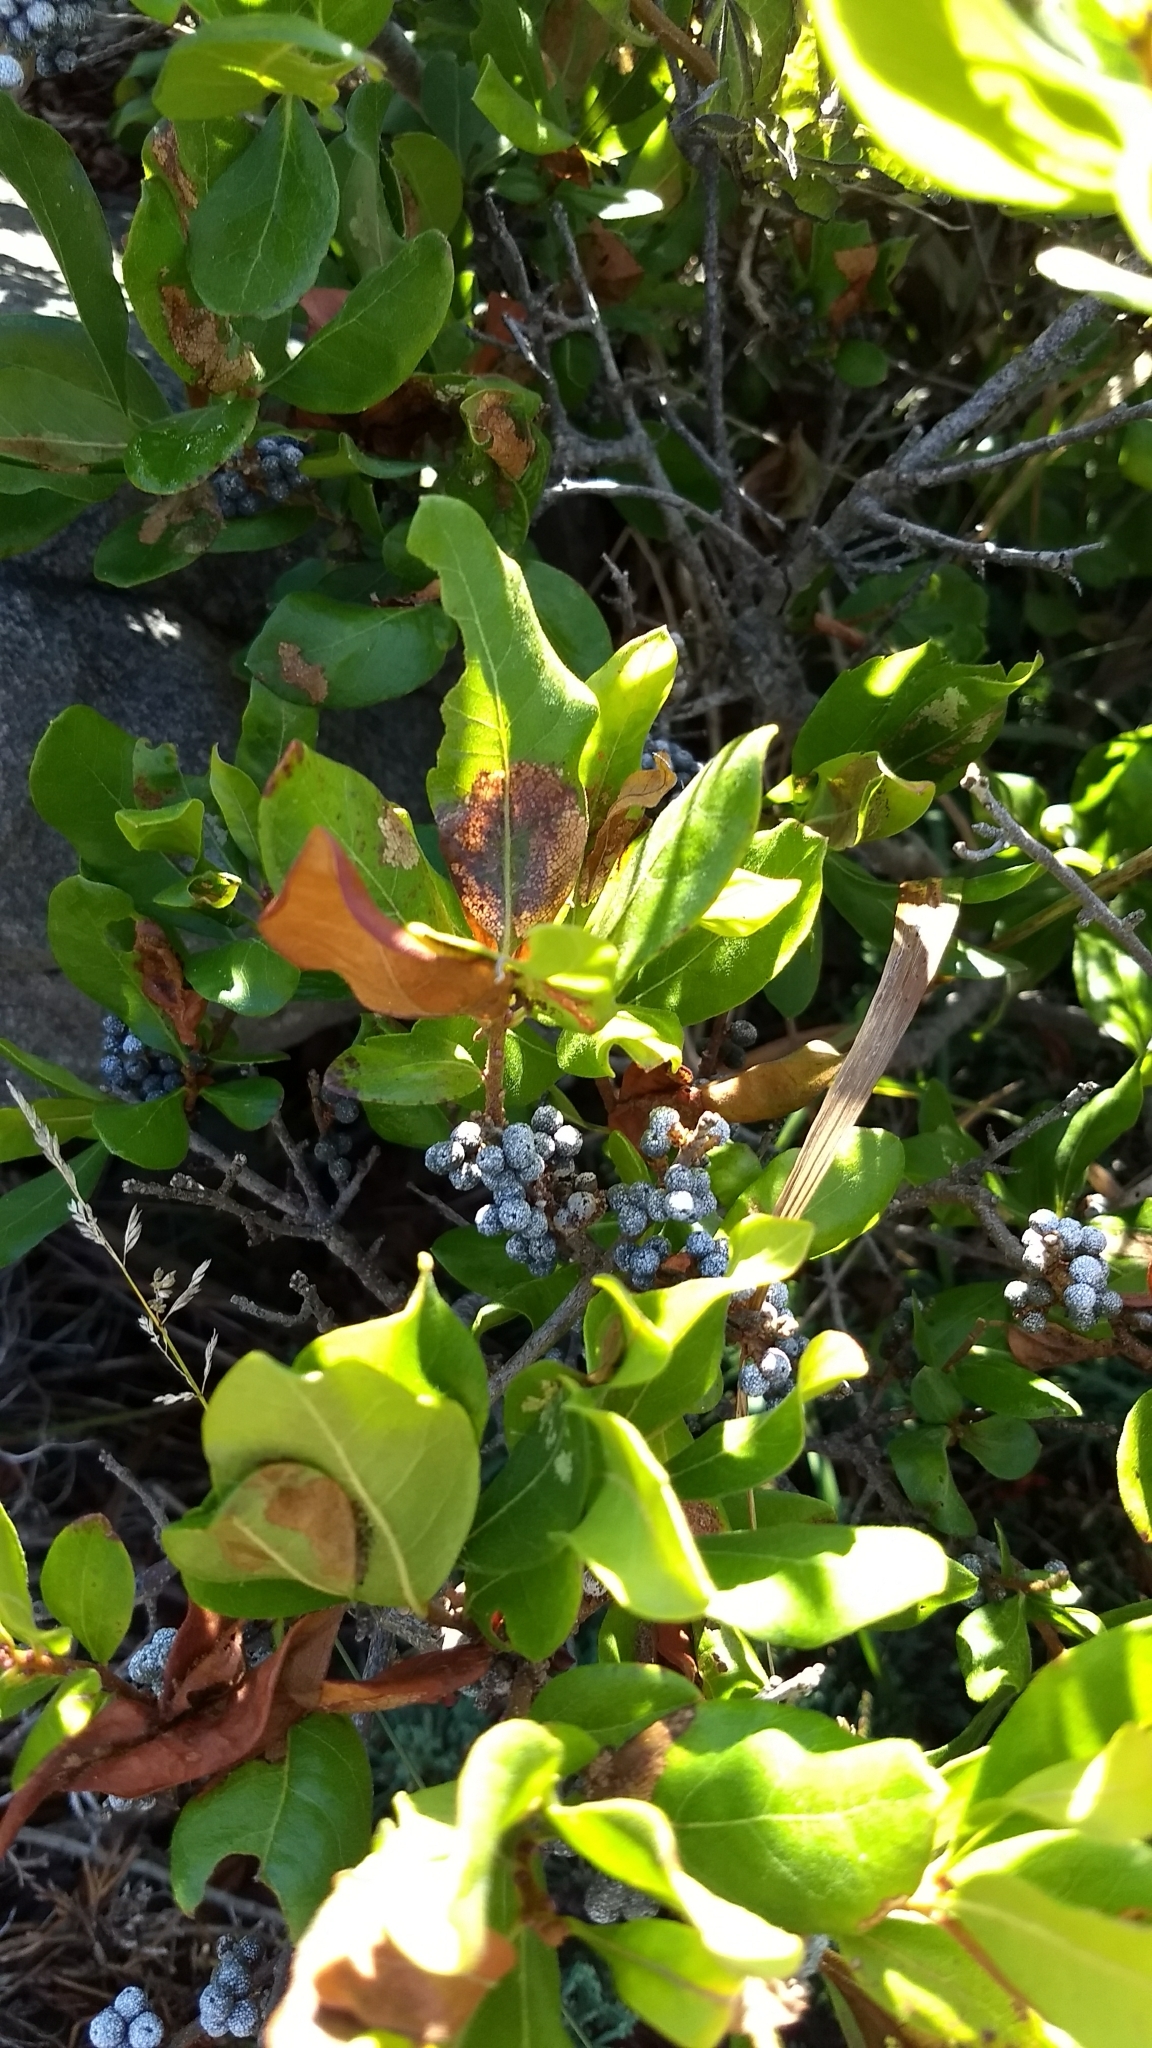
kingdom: Plantae
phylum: Tracheophyta
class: Magnoliopsida
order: Fagales
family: Myricaceae
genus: Morella
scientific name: Morella pensylvanica
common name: Northern bayberry
